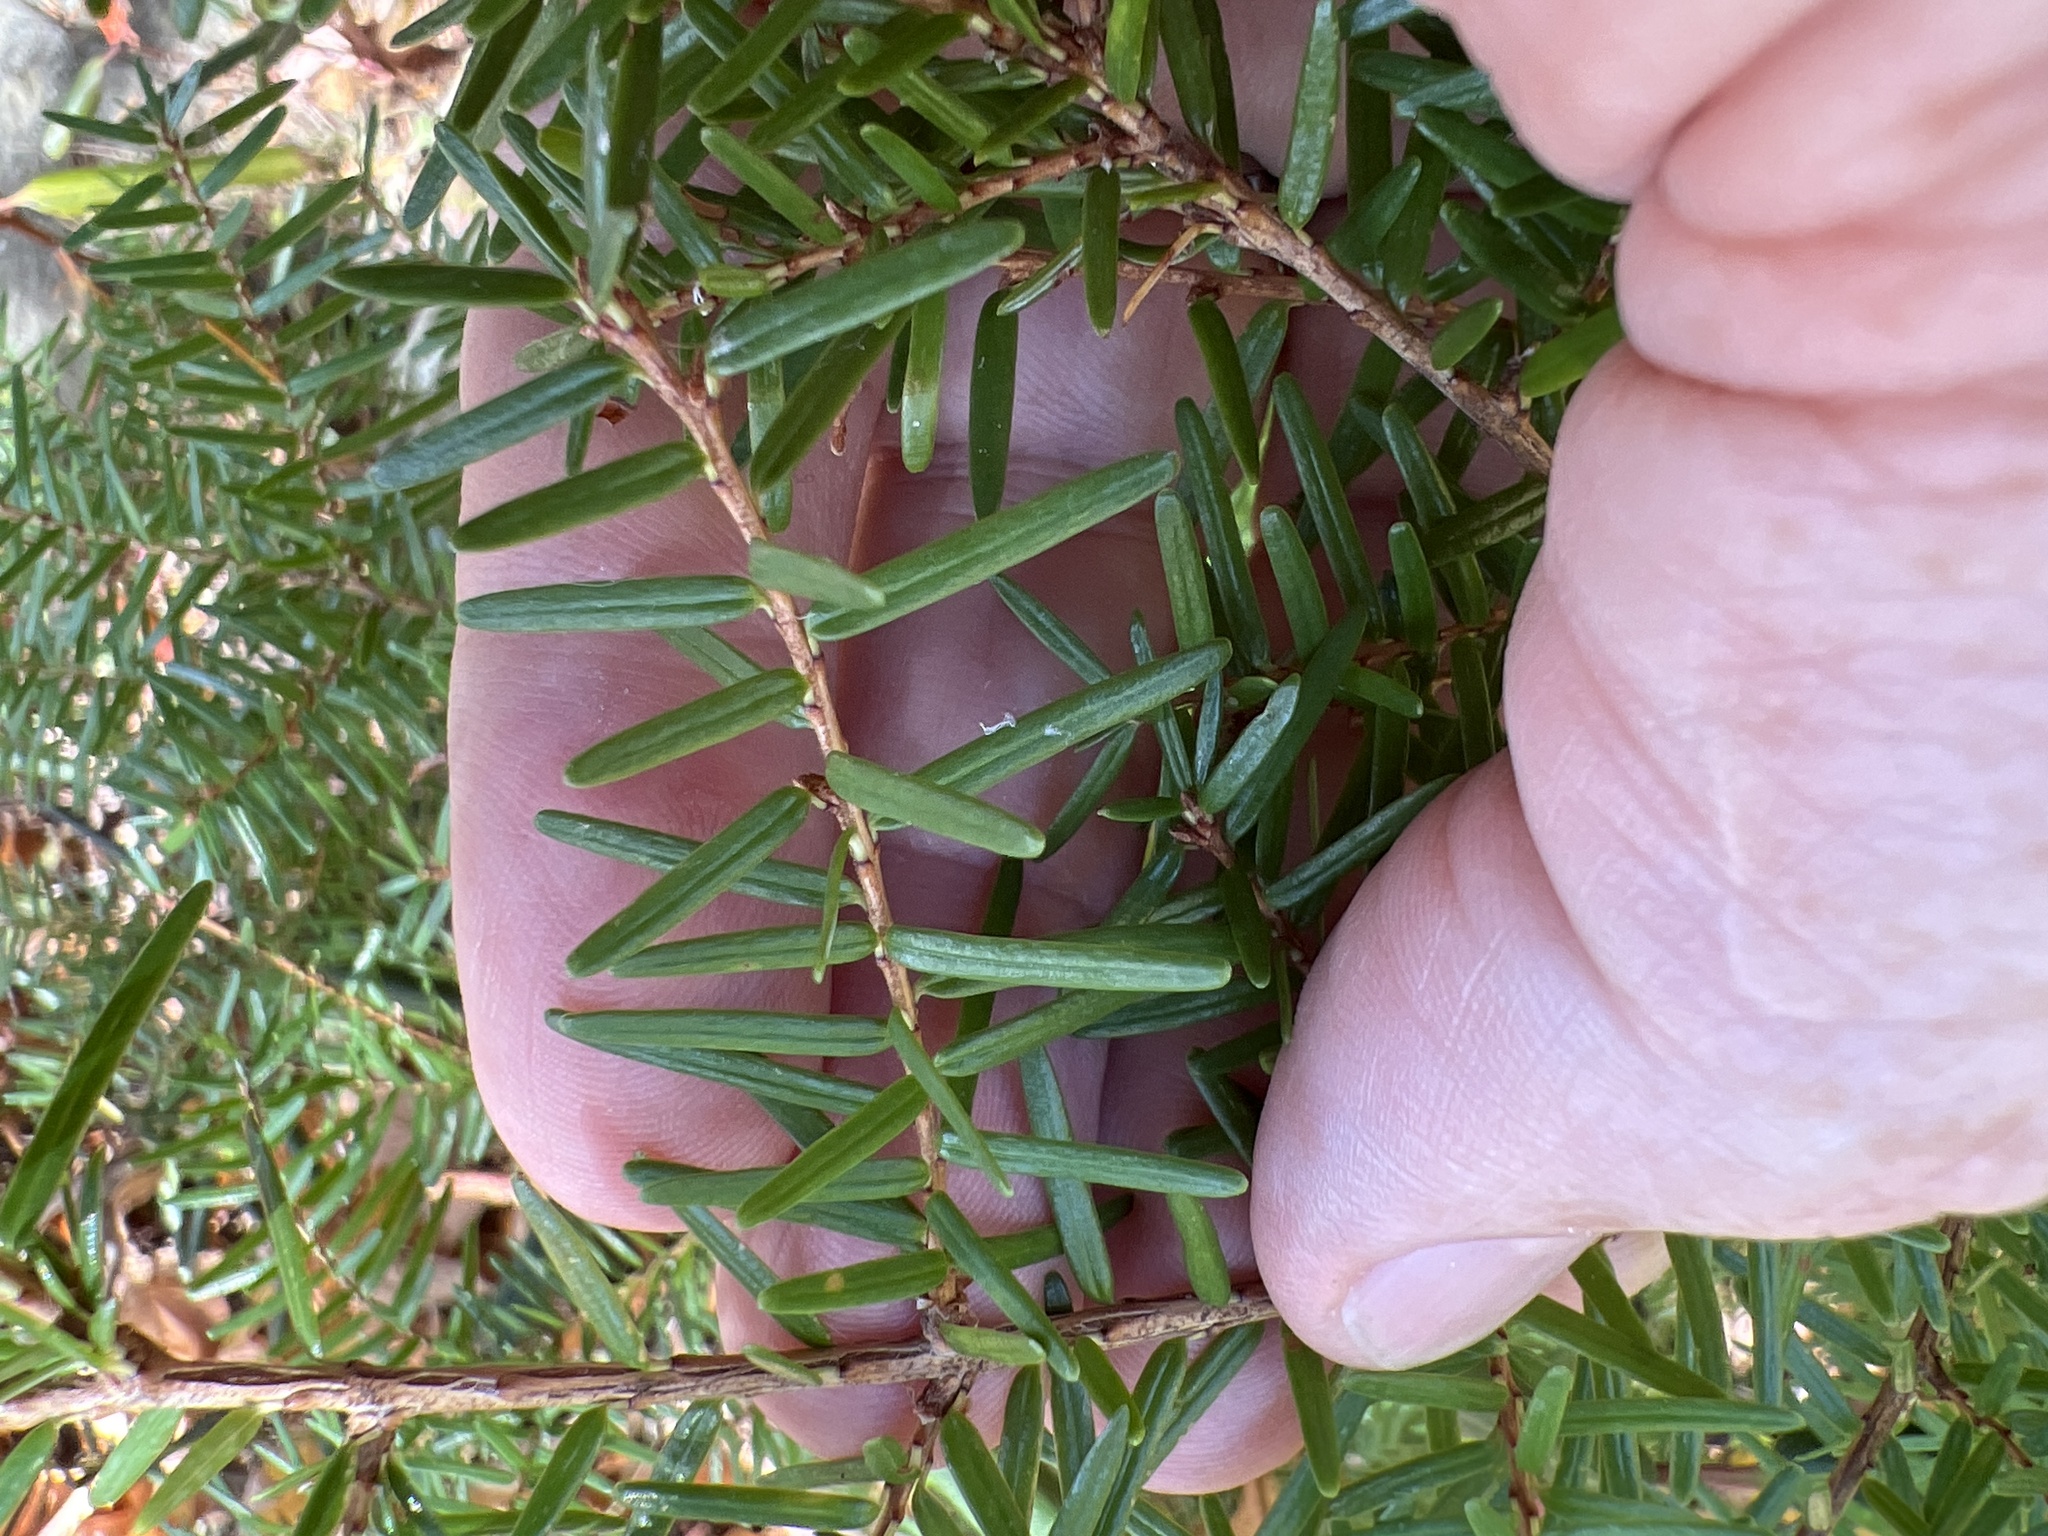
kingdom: Plantae
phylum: Tracheophyta
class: Pinopsida
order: Pinales
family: Pinaceae
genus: Tsuga
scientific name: Tsuga caroliniana
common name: Carolina hemlock
